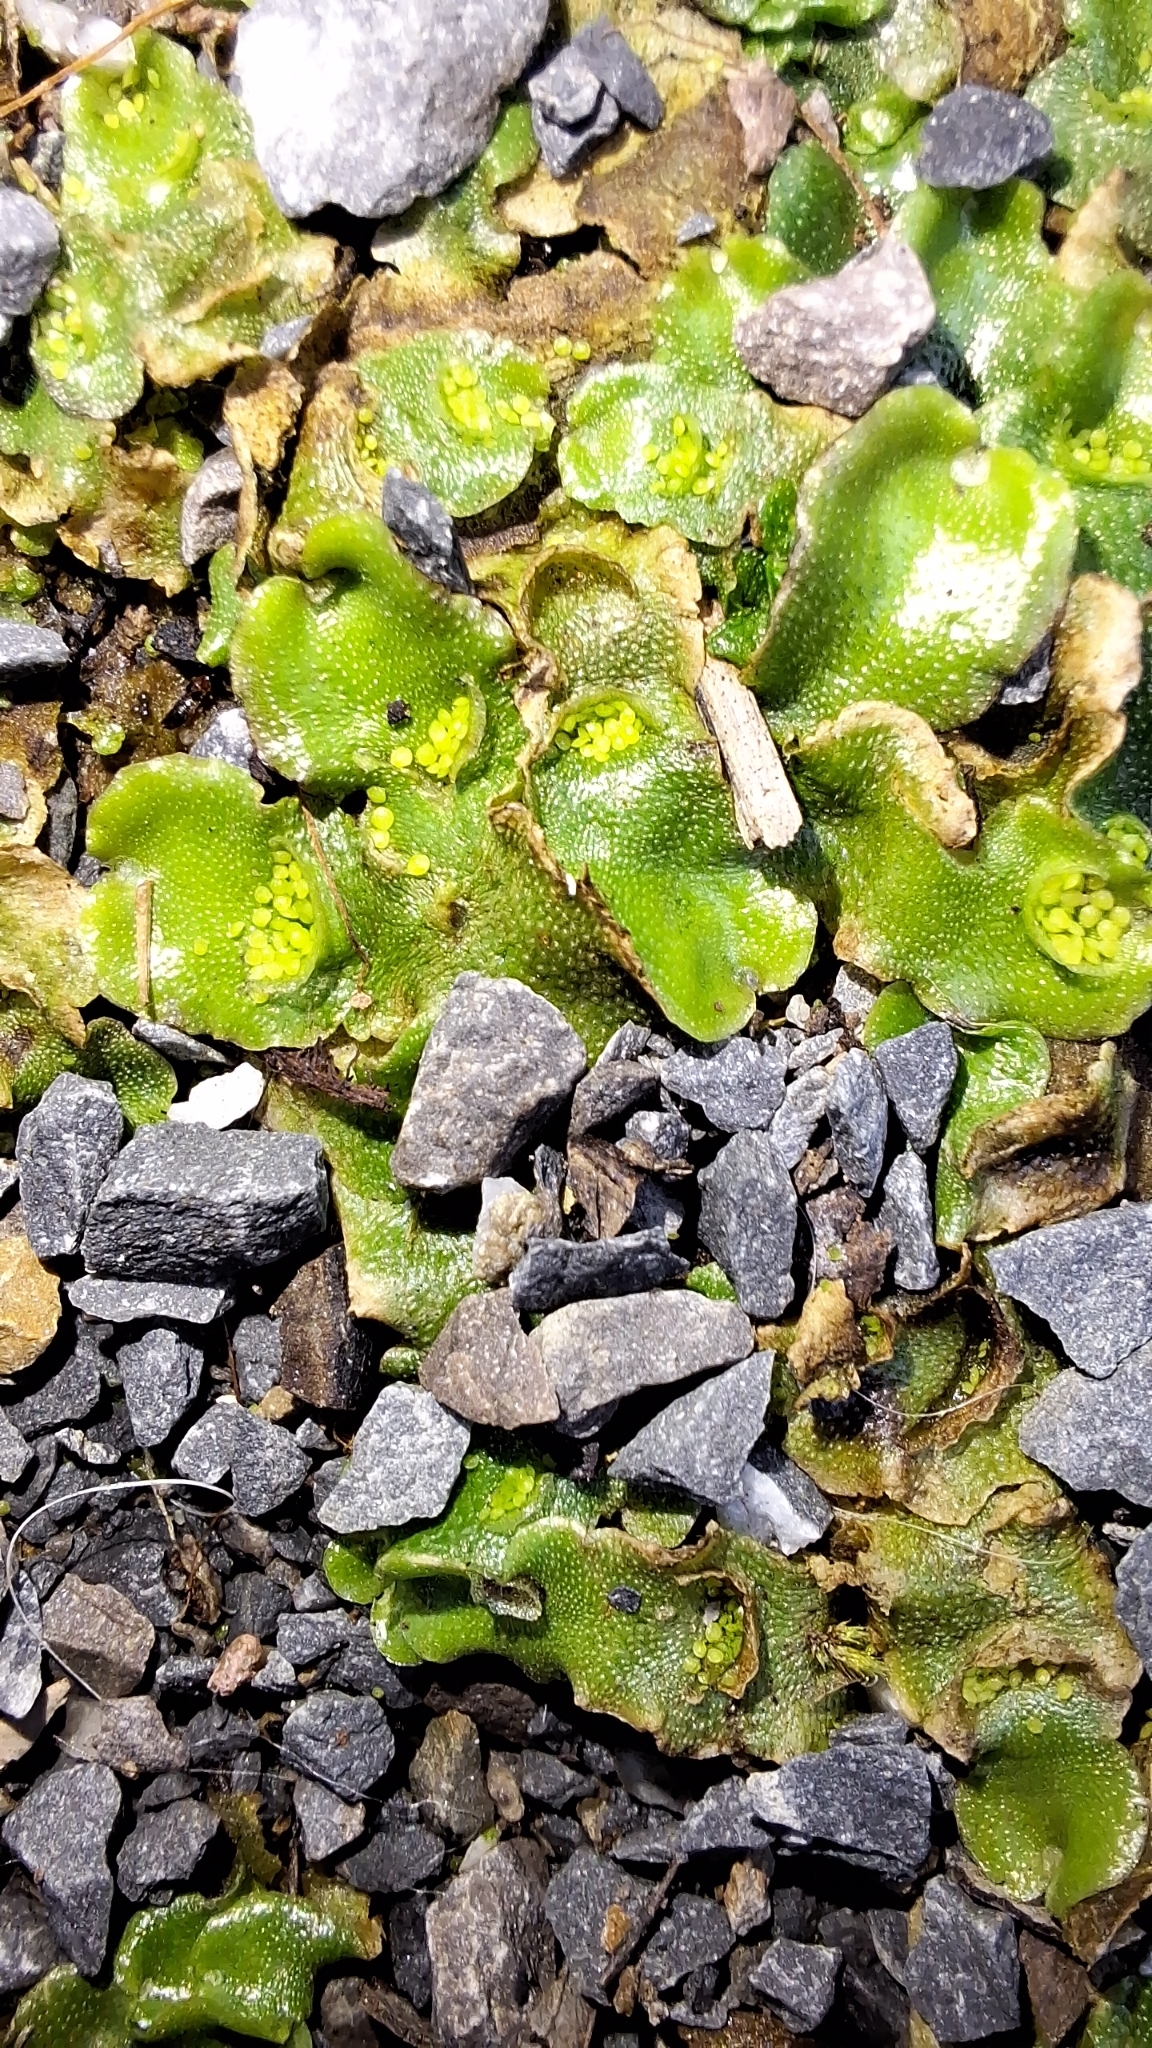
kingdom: Plantae
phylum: Marchantiophyta
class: Marchantiopsida
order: Lunulariales
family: Lunulariaceae
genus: Lunularia
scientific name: Lunularia cruciata
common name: Crescent-cup liverwort
